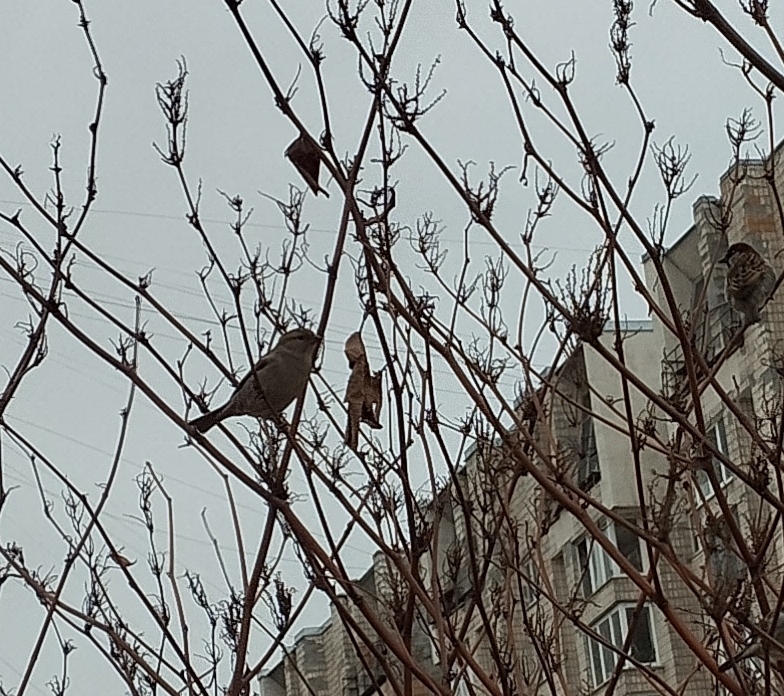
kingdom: Animalia
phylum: Chordata
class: Aves
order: Passeriformes
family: Passeridae
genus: Passer
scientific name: Passer domesticus
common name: House sparrow
